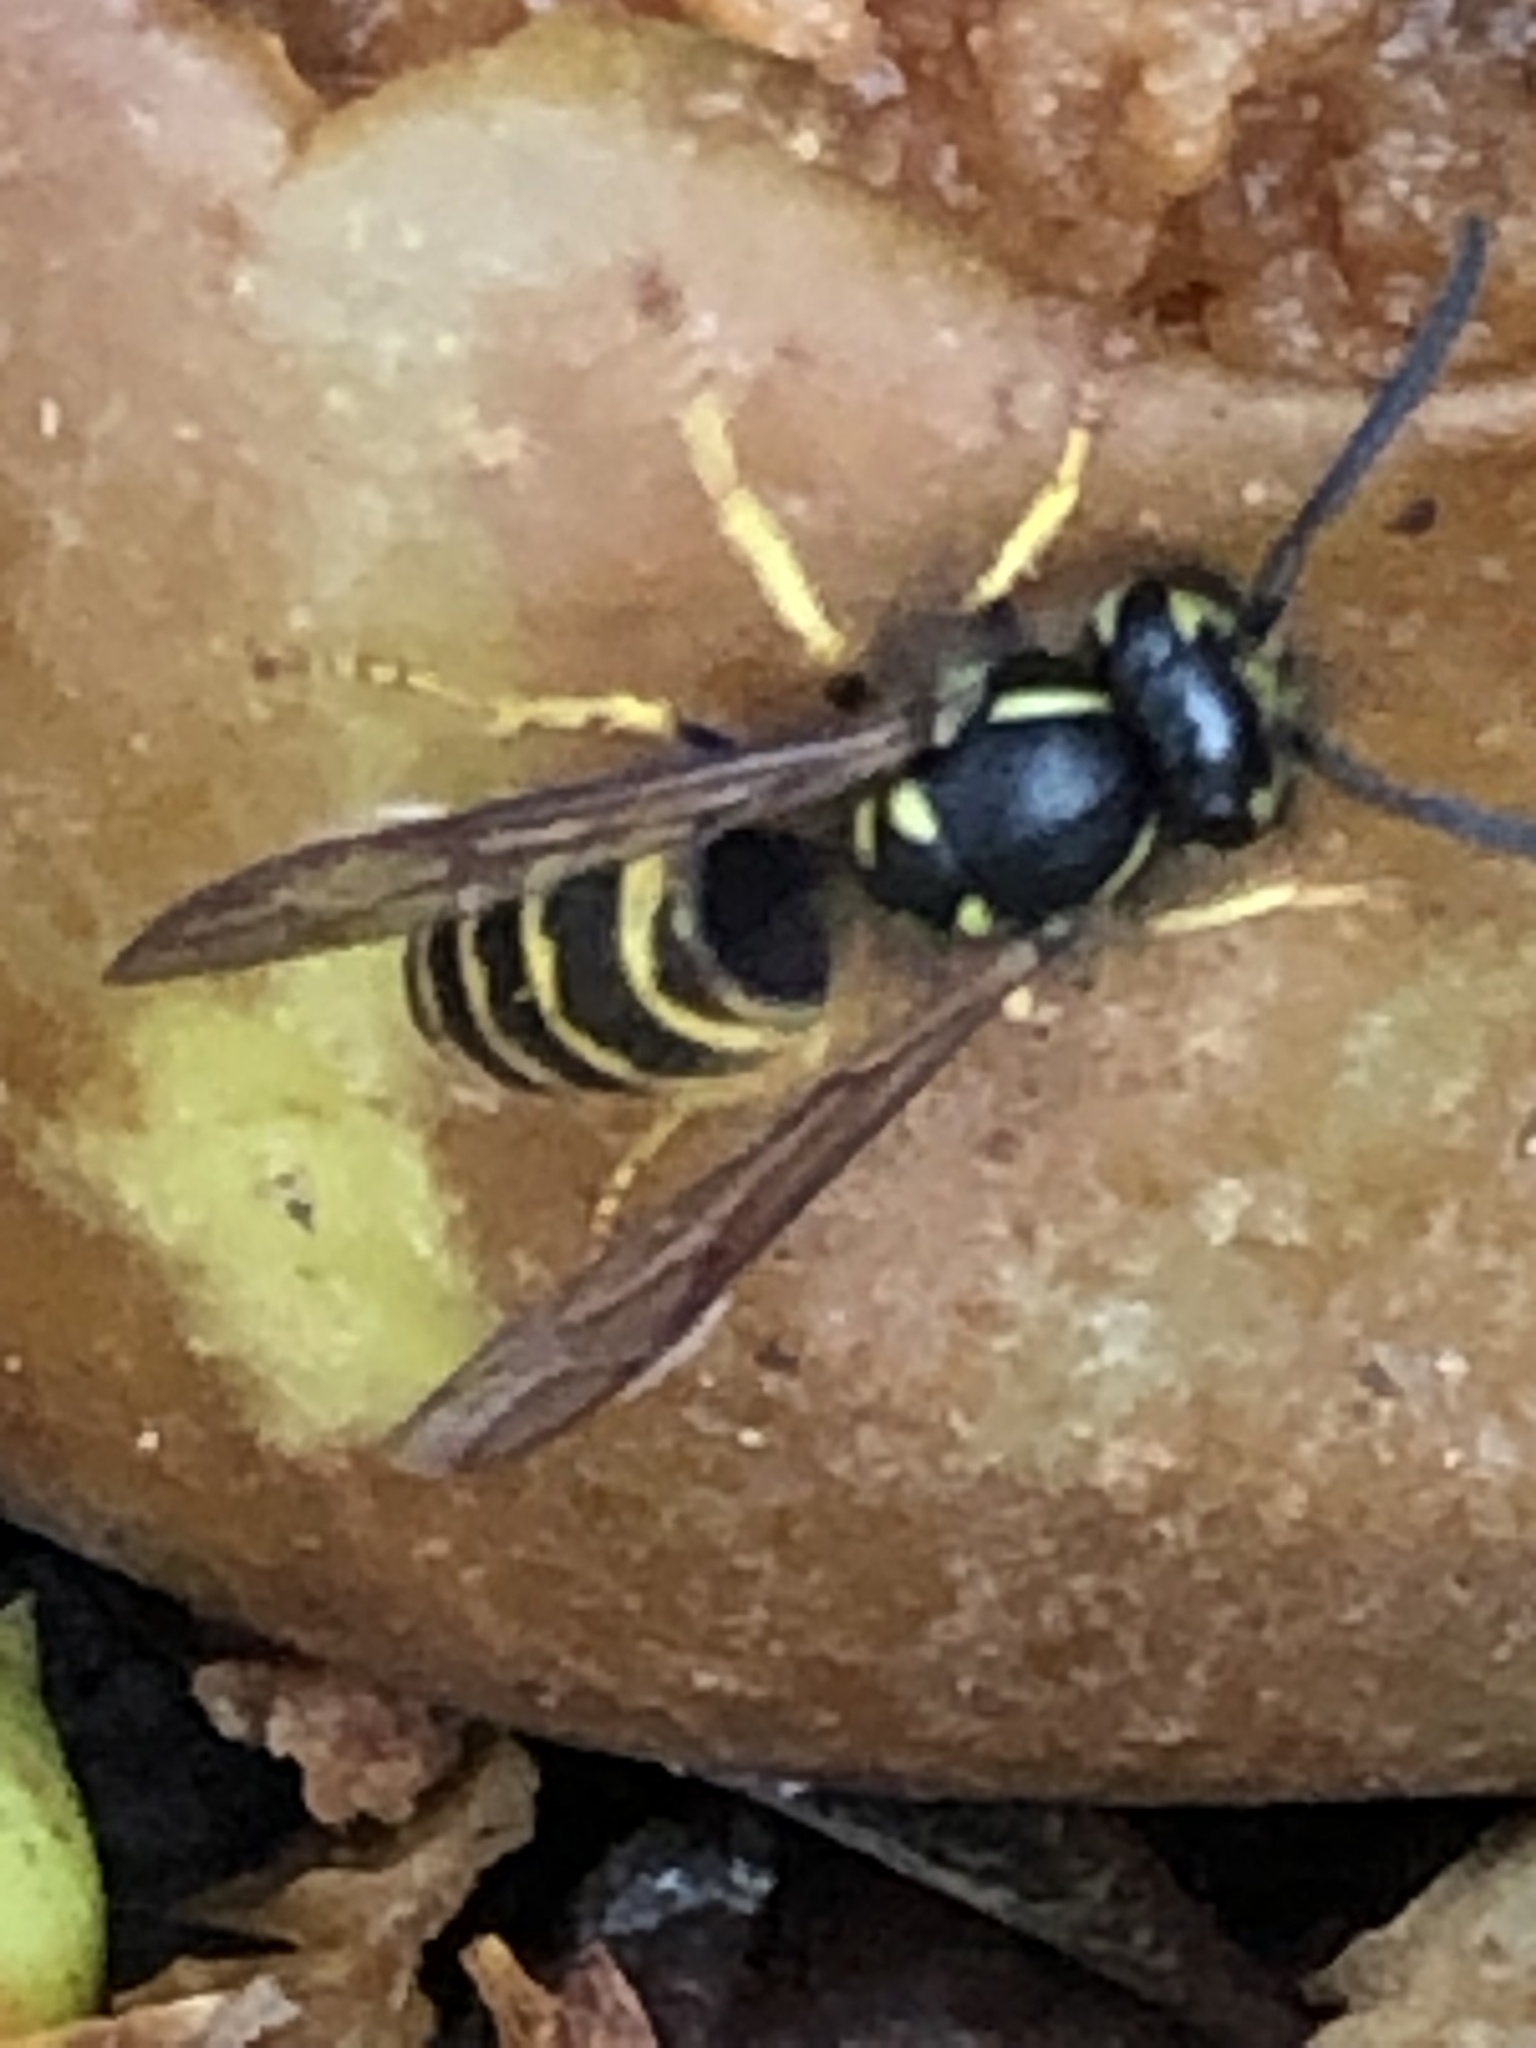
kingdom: Animalia
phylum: Arthropoda
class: Insecta
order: Hymenoptera
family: Vespidae
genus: Vespula
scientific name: Vespula alascensis
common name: Alaska yellowjacket
